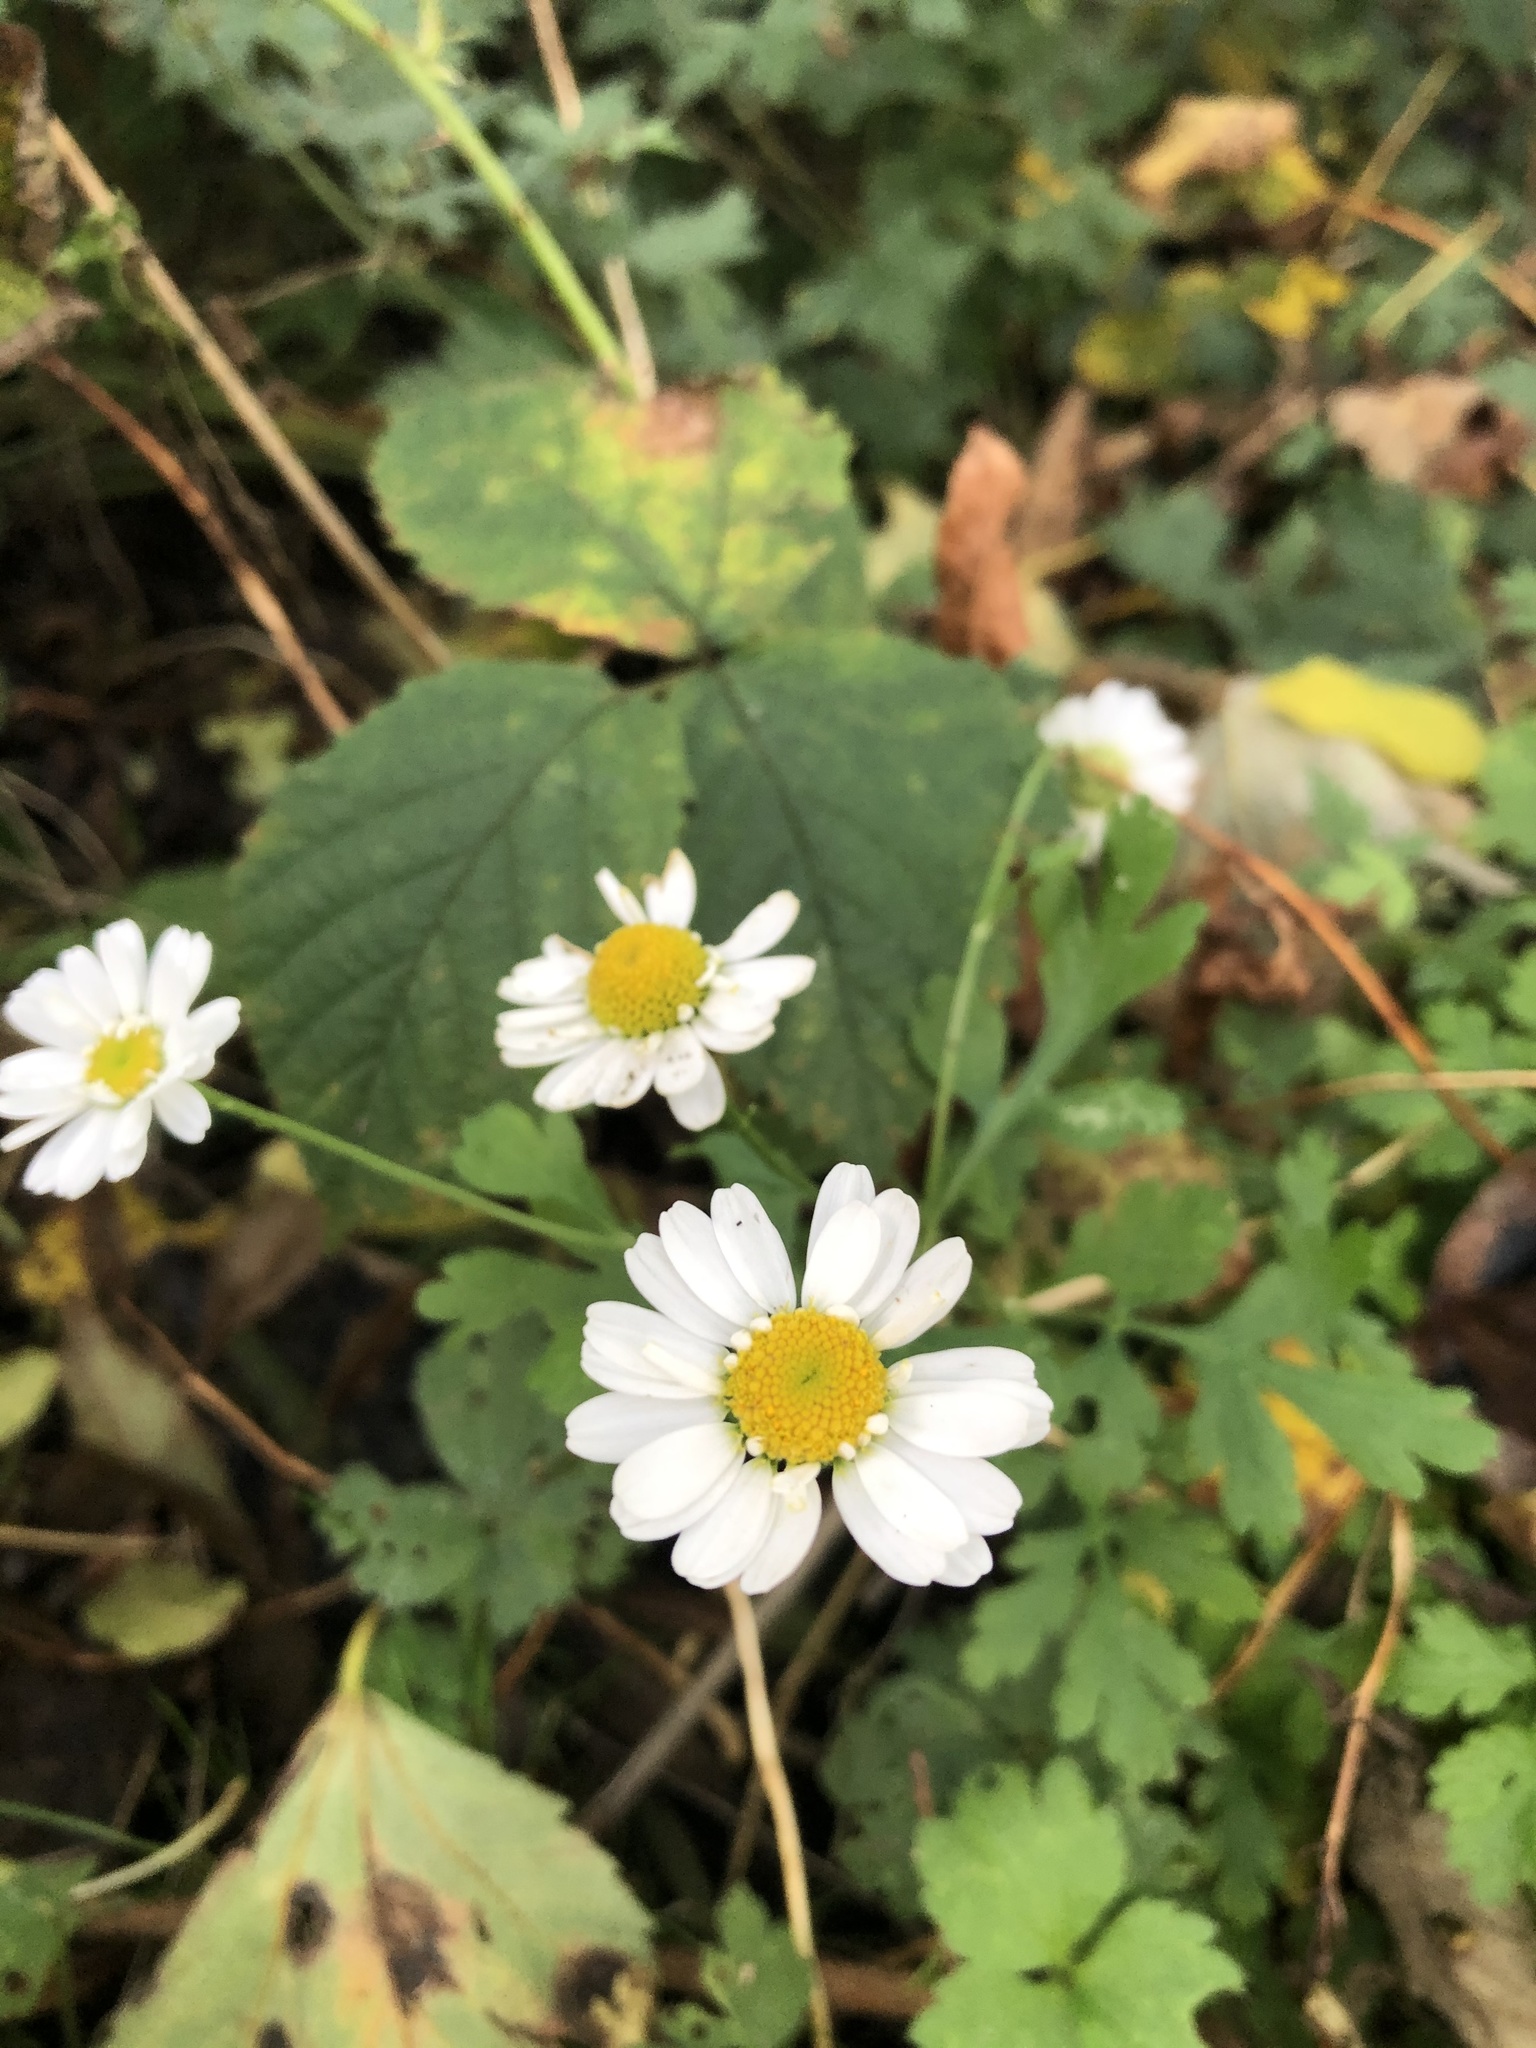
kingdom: Plantae
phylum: Tracheophyta
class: Magnoliopsida
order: Asterales
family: Asteraceae
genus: Tanacetum
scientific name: Tanacetum parthenium
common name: Feverfew
